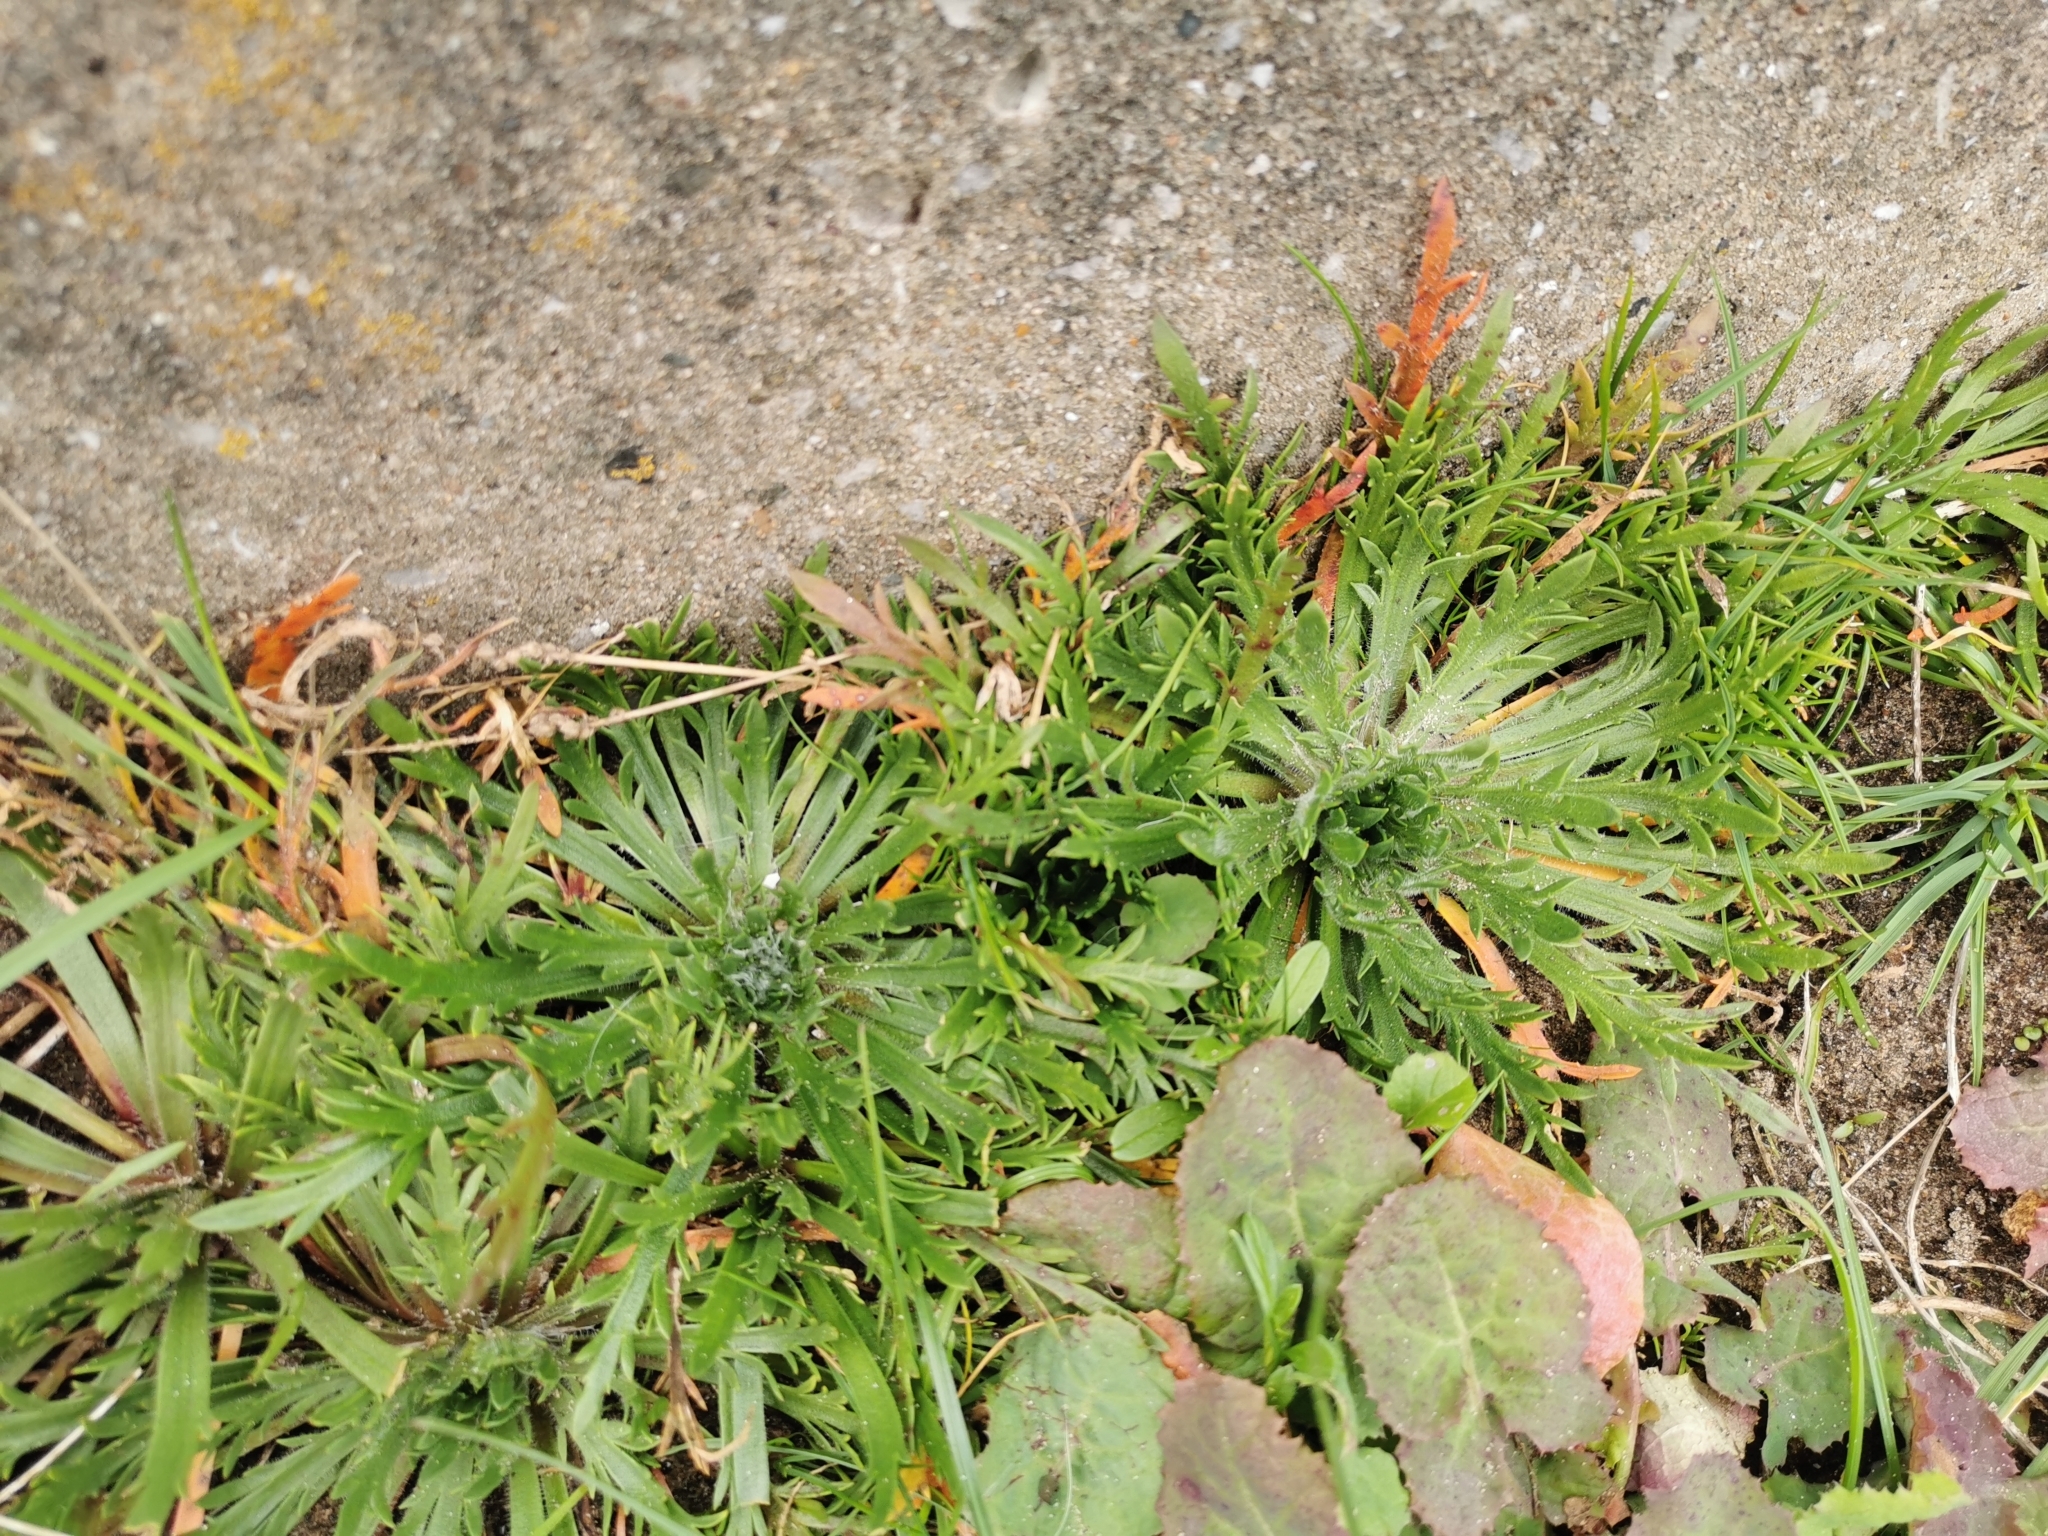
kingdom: Plantae
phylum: Tracheophyta
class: Magnoliopsida
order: Lamiales
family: Plantaginaceae
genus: Plantago
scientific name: Plantago coronopus
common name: Buck's-horn plantain
